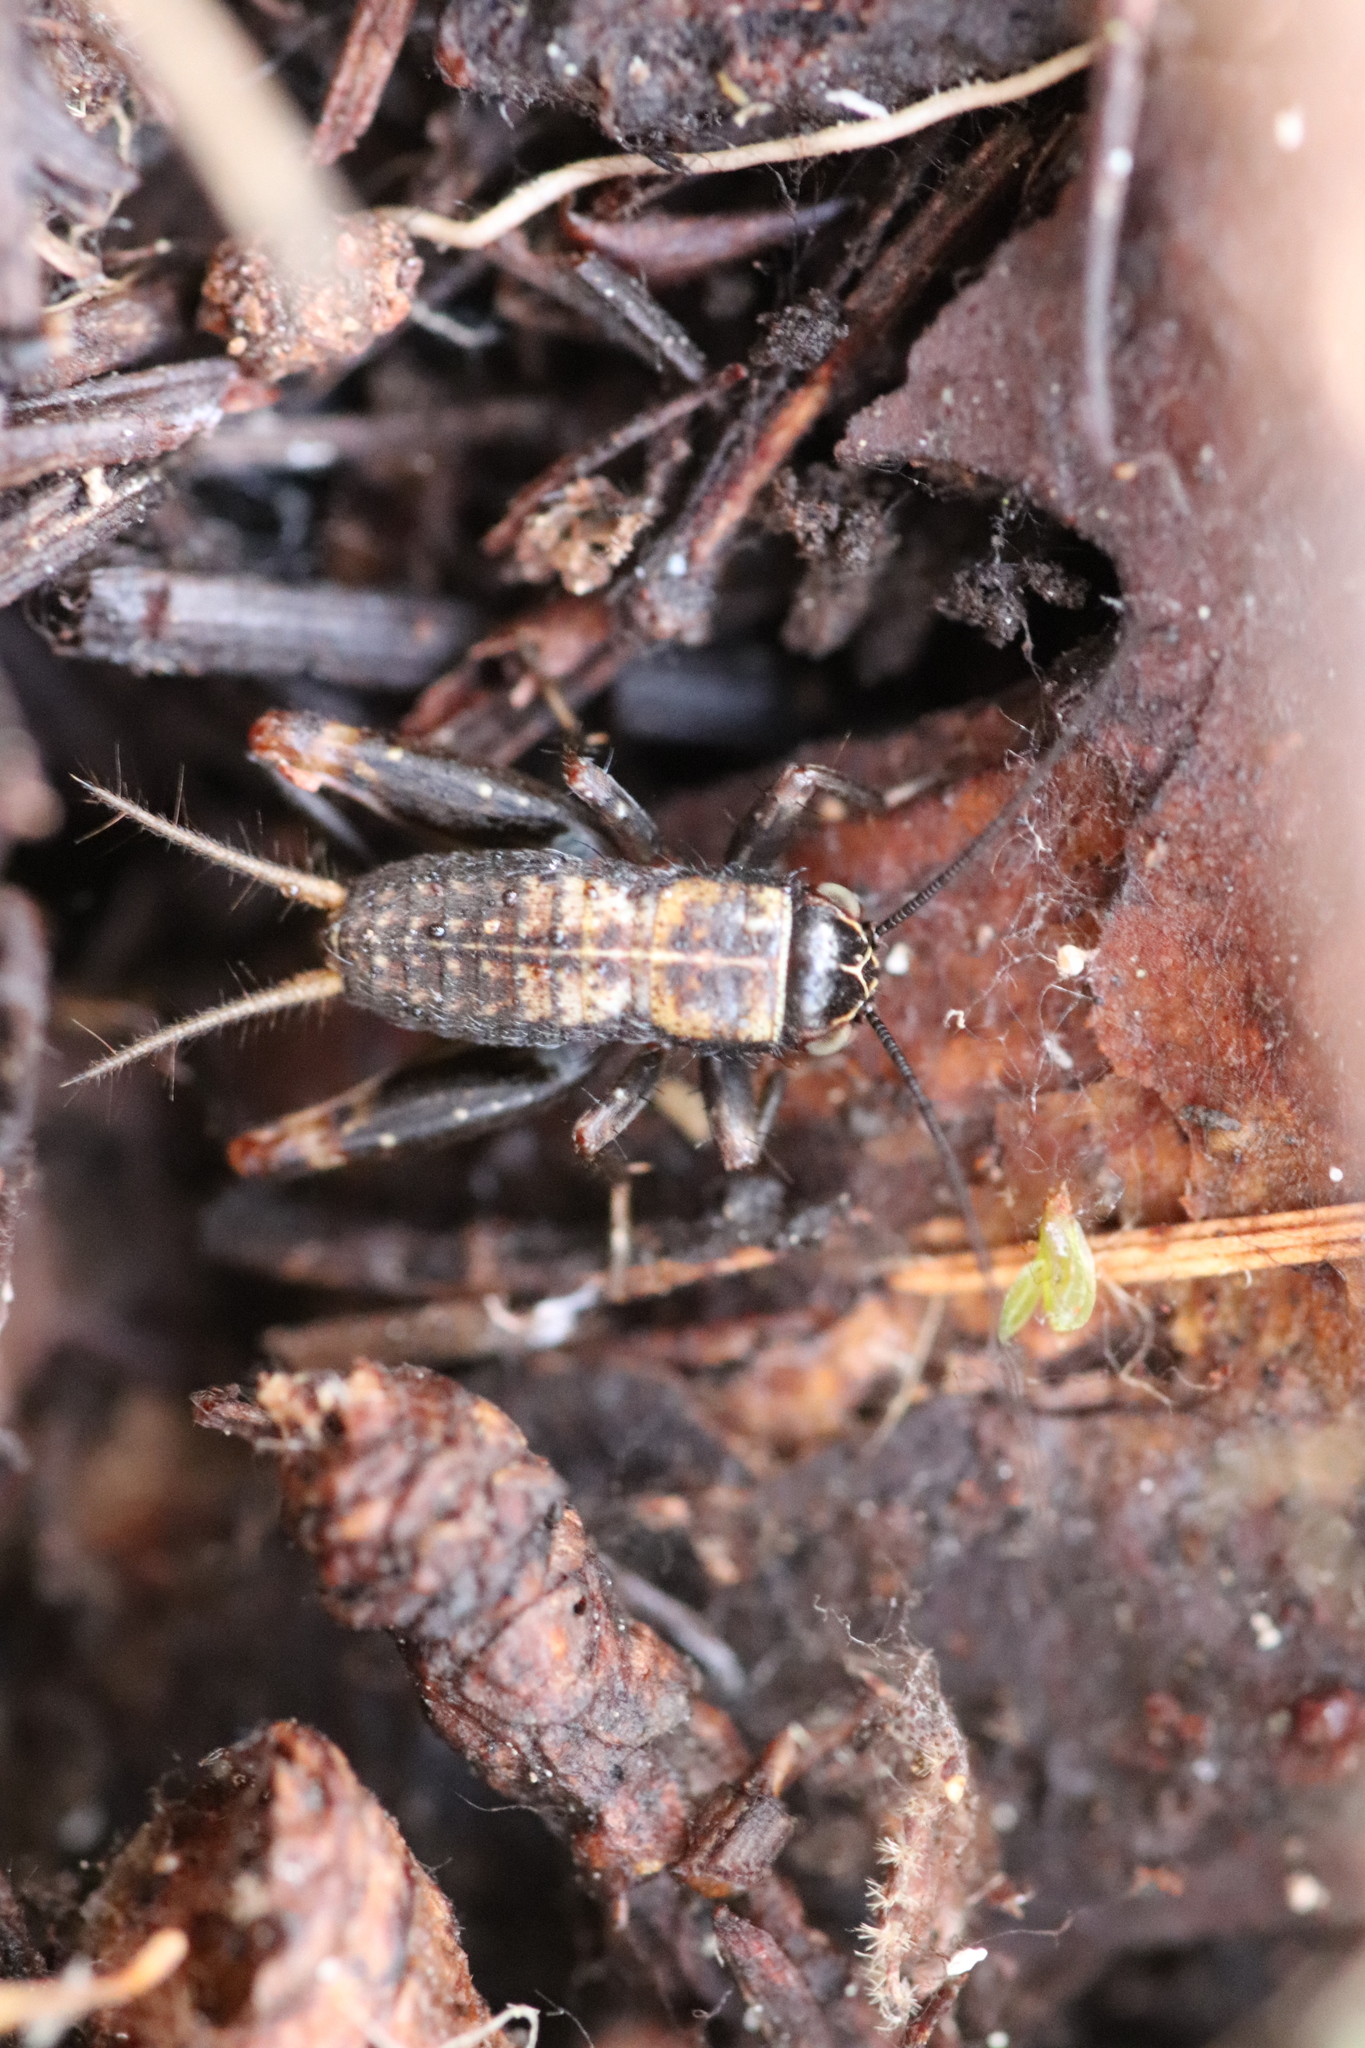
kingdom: Animalia
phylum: Arthropoda
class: Insecta
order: Orthoptera
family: Trigonidiidae
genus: Nemobius
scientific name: Nemobius sylvestris
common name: Wood-cricket
